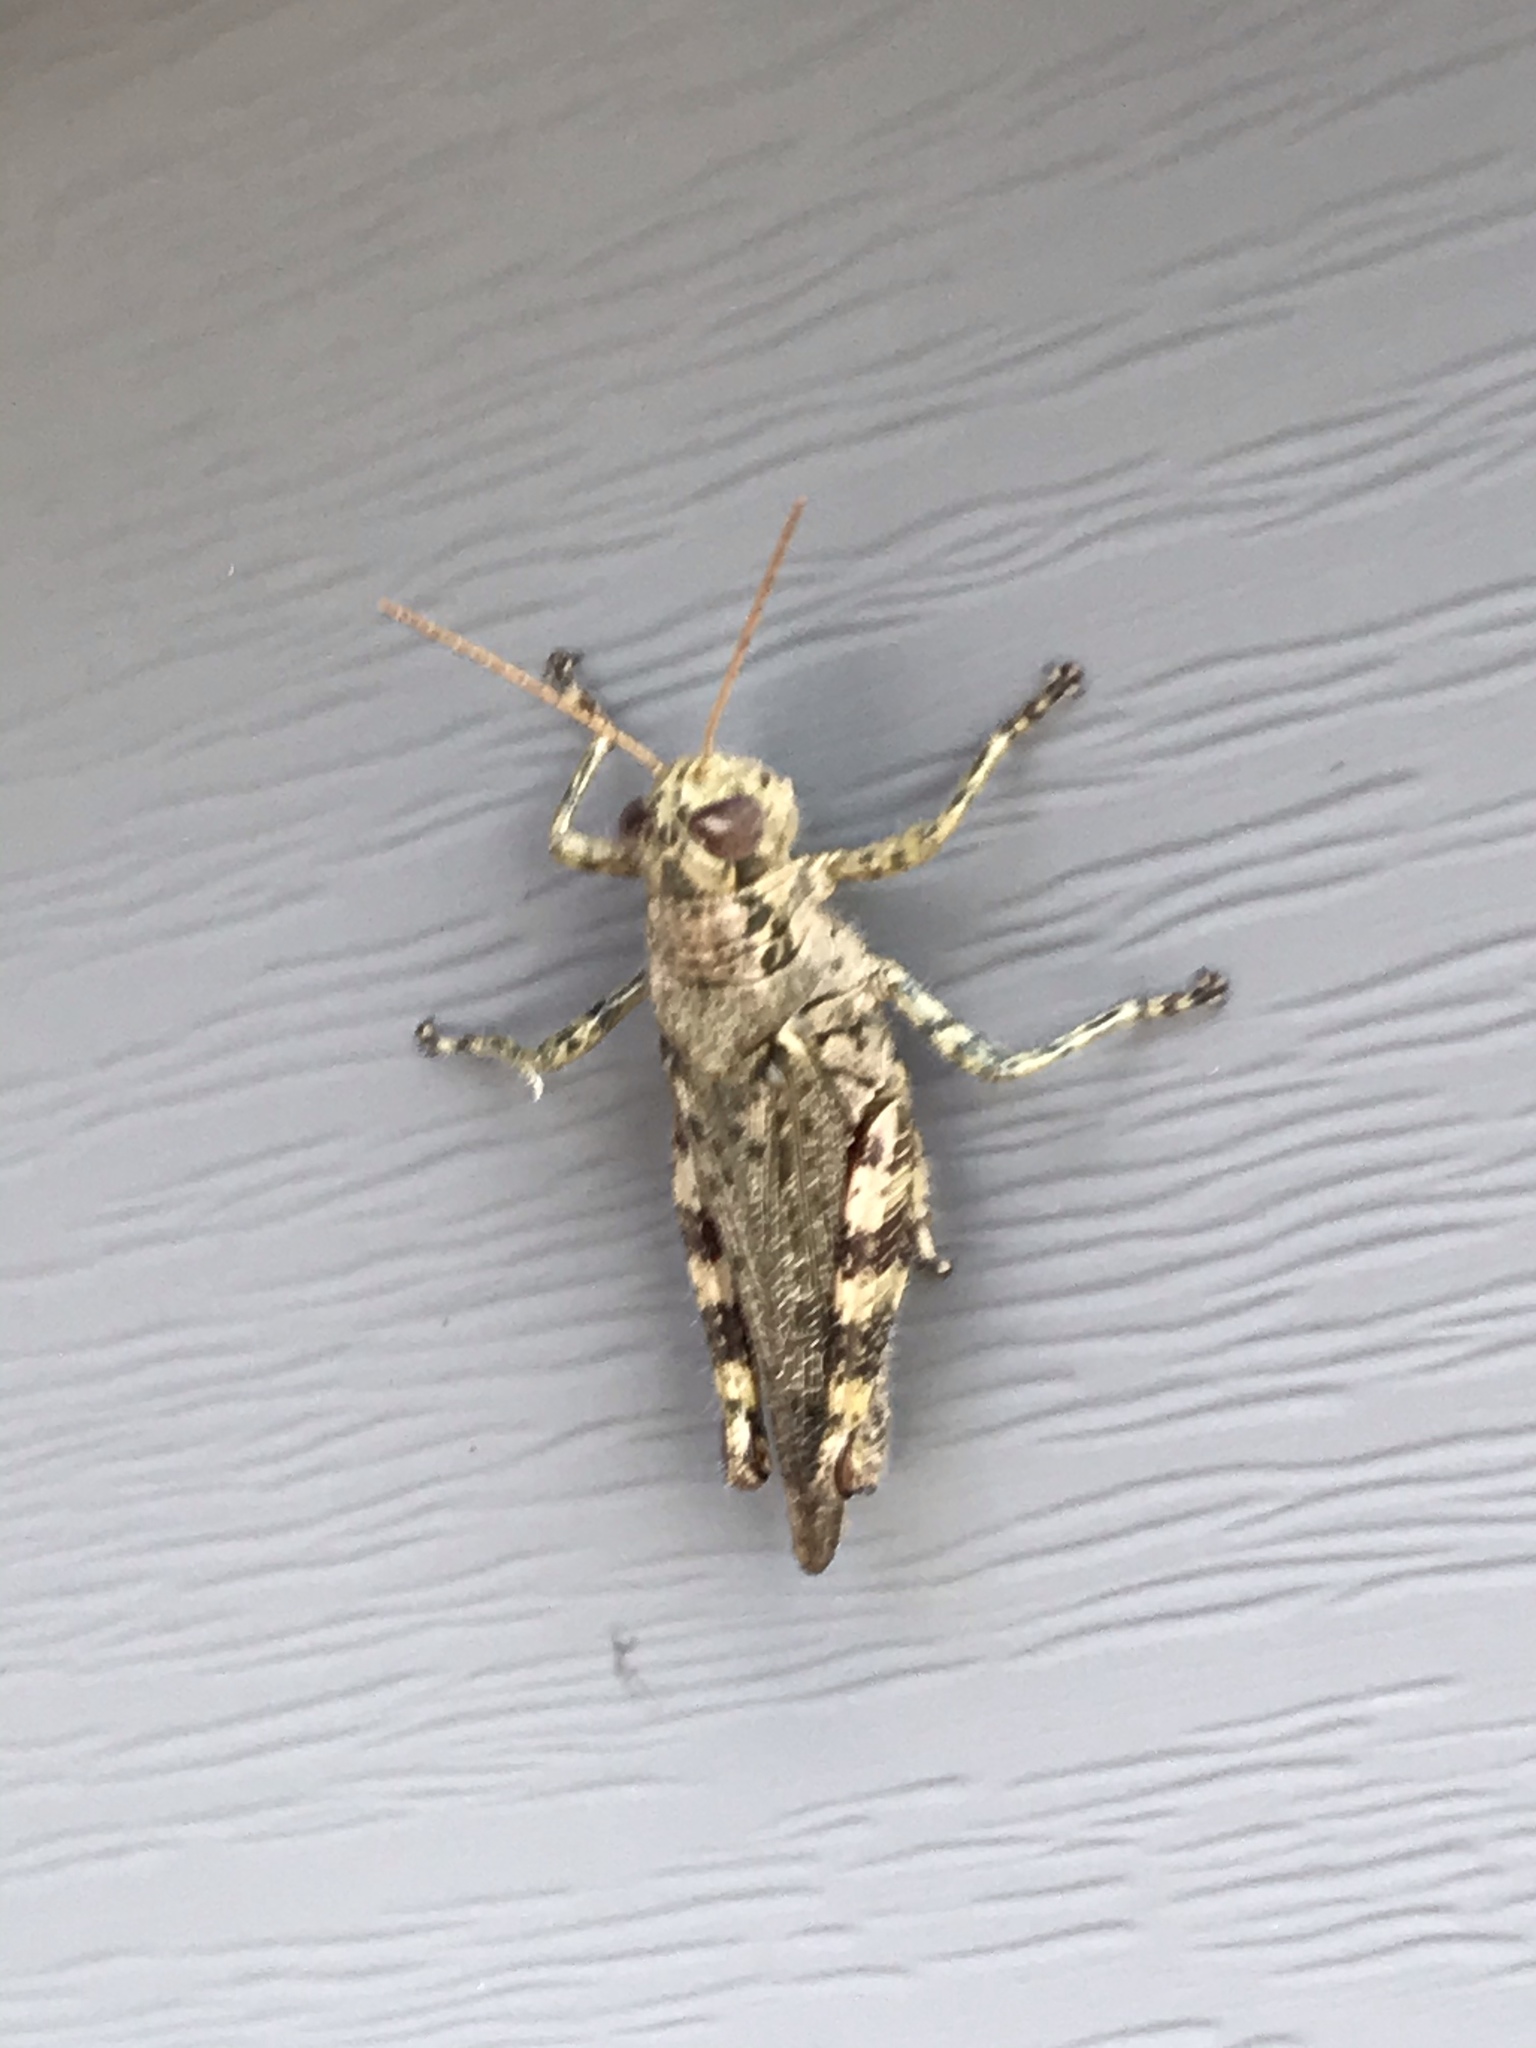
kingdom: Animalia
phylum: Arthropoda
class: Insecta
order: Orthoptera
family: Acrididae
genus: Melanoplus
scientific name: Melanoplus punctulatus
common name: Pine-tree spur-throat grasshopper
